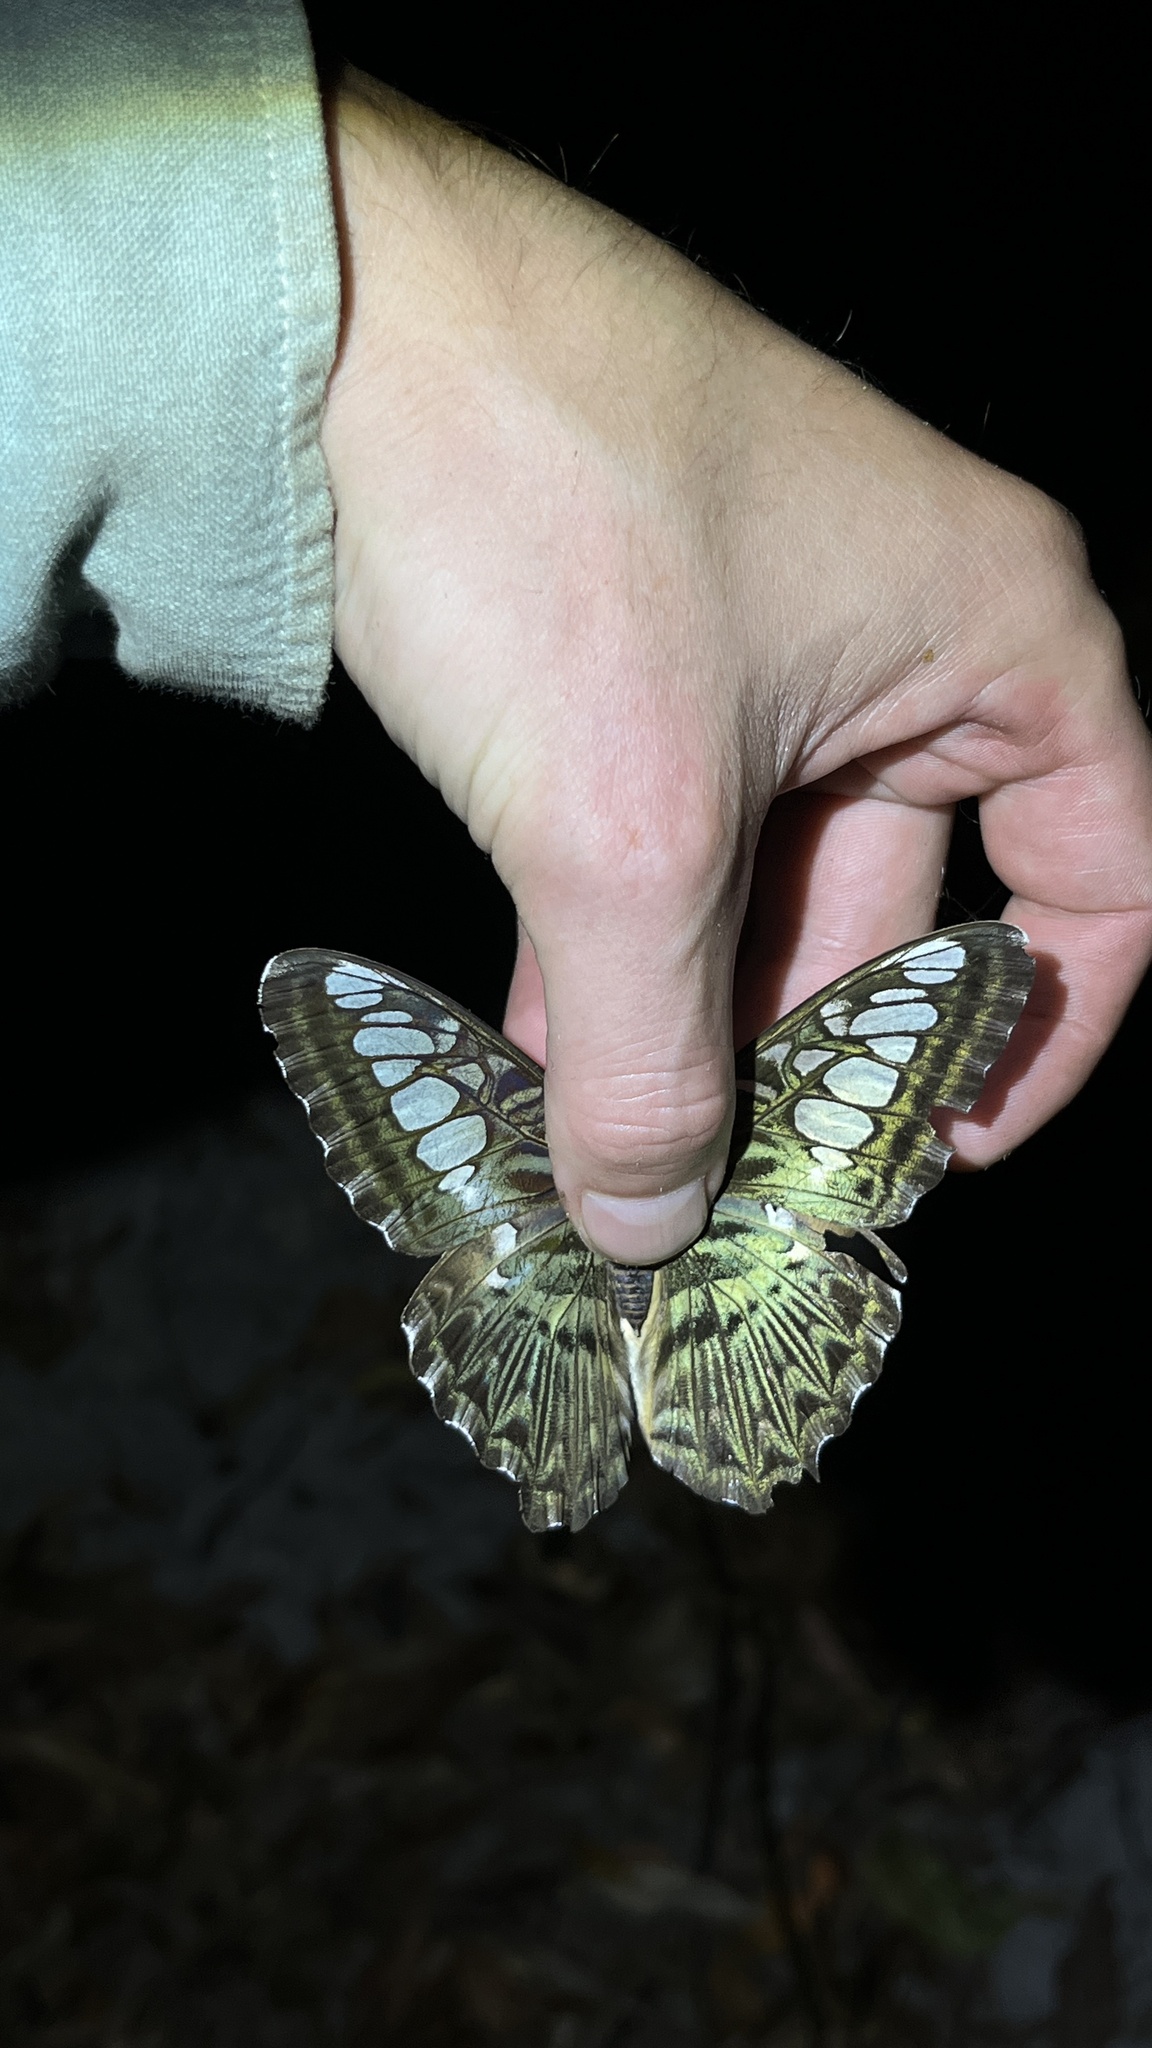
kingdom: Animalia
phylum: Arthropoda
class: Insecta
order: Lepidoptera
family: Nymphalidae
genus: Kallima
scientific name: Kallima sylvia
